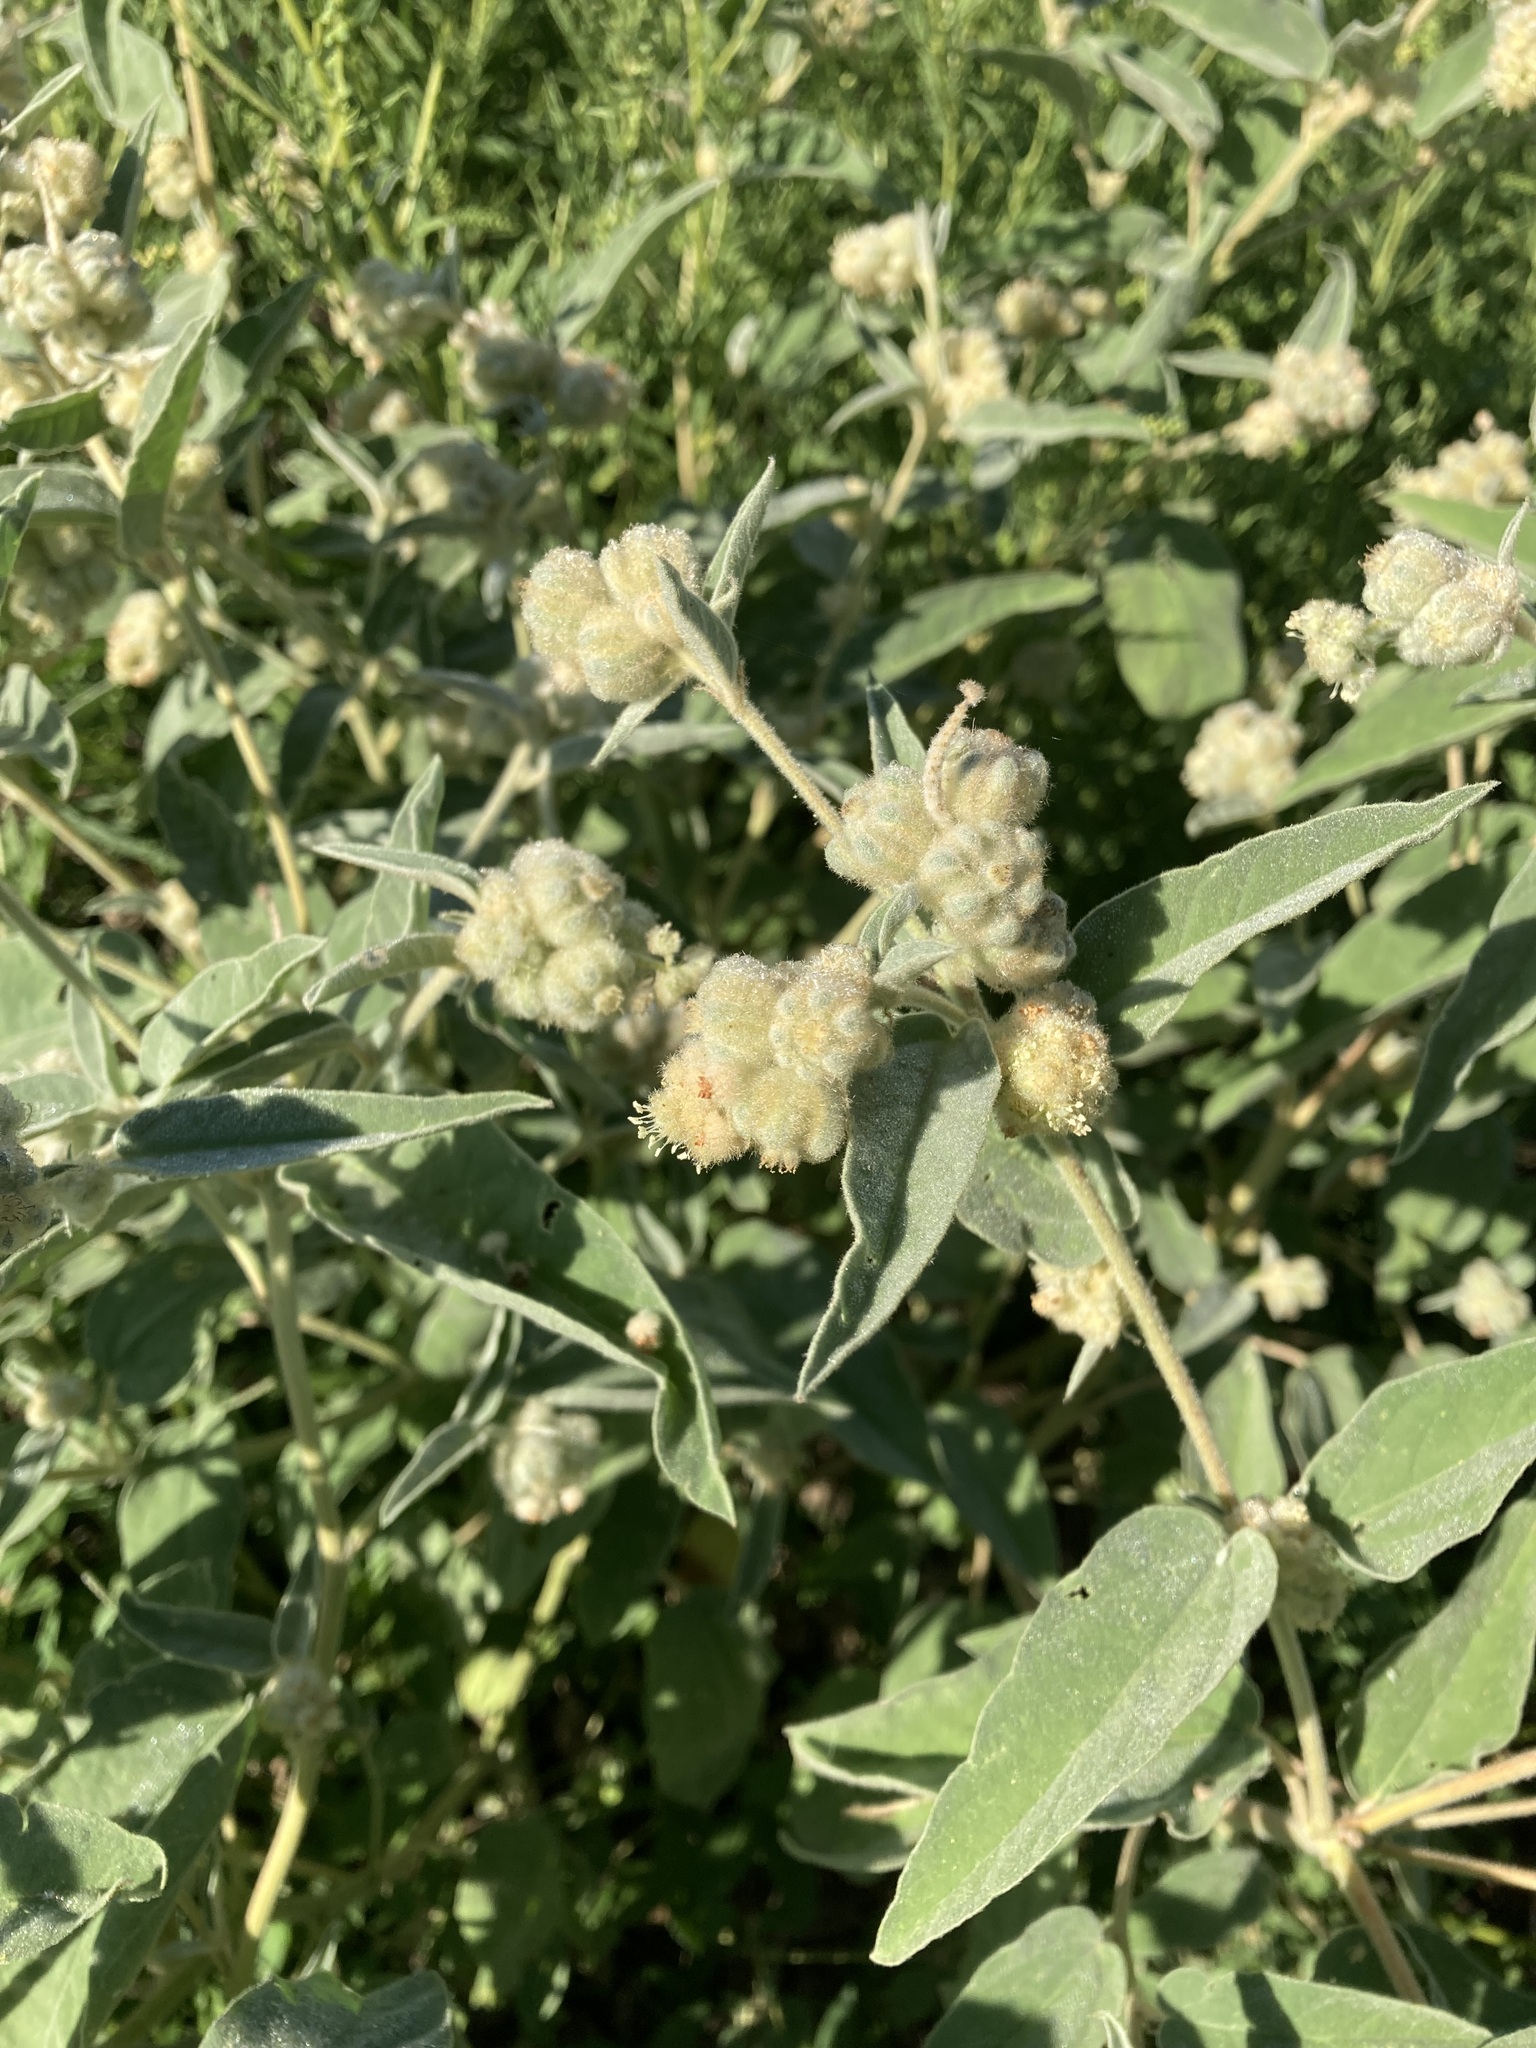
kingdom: Plantae
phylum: Tracheophyta
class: Magnoliopsida
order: Malpighiales
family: Euphorbiaceae
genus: Croton
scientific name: Croton lindheimeri
